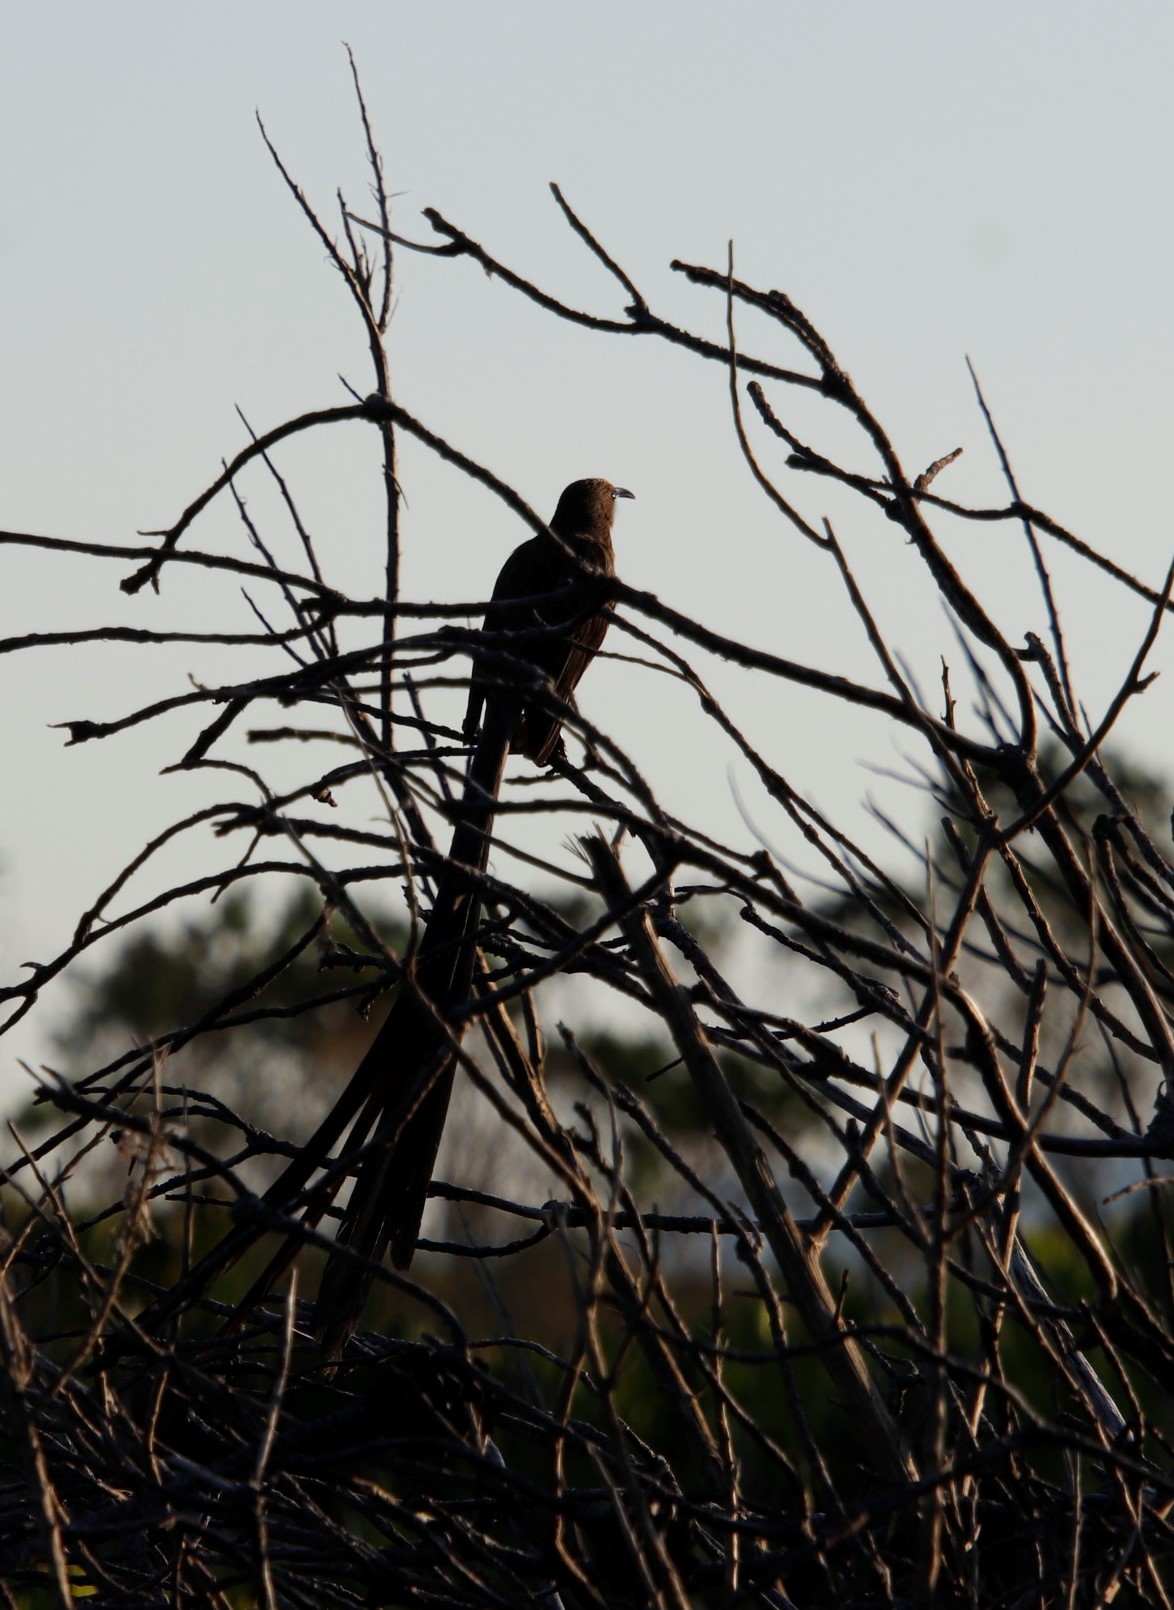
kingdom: Animalia
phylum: Chordata
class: Aves
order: Passeriformes
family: Promeropidae
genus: Promerops
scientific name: Promerops cafer
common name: Cape sugarbird
